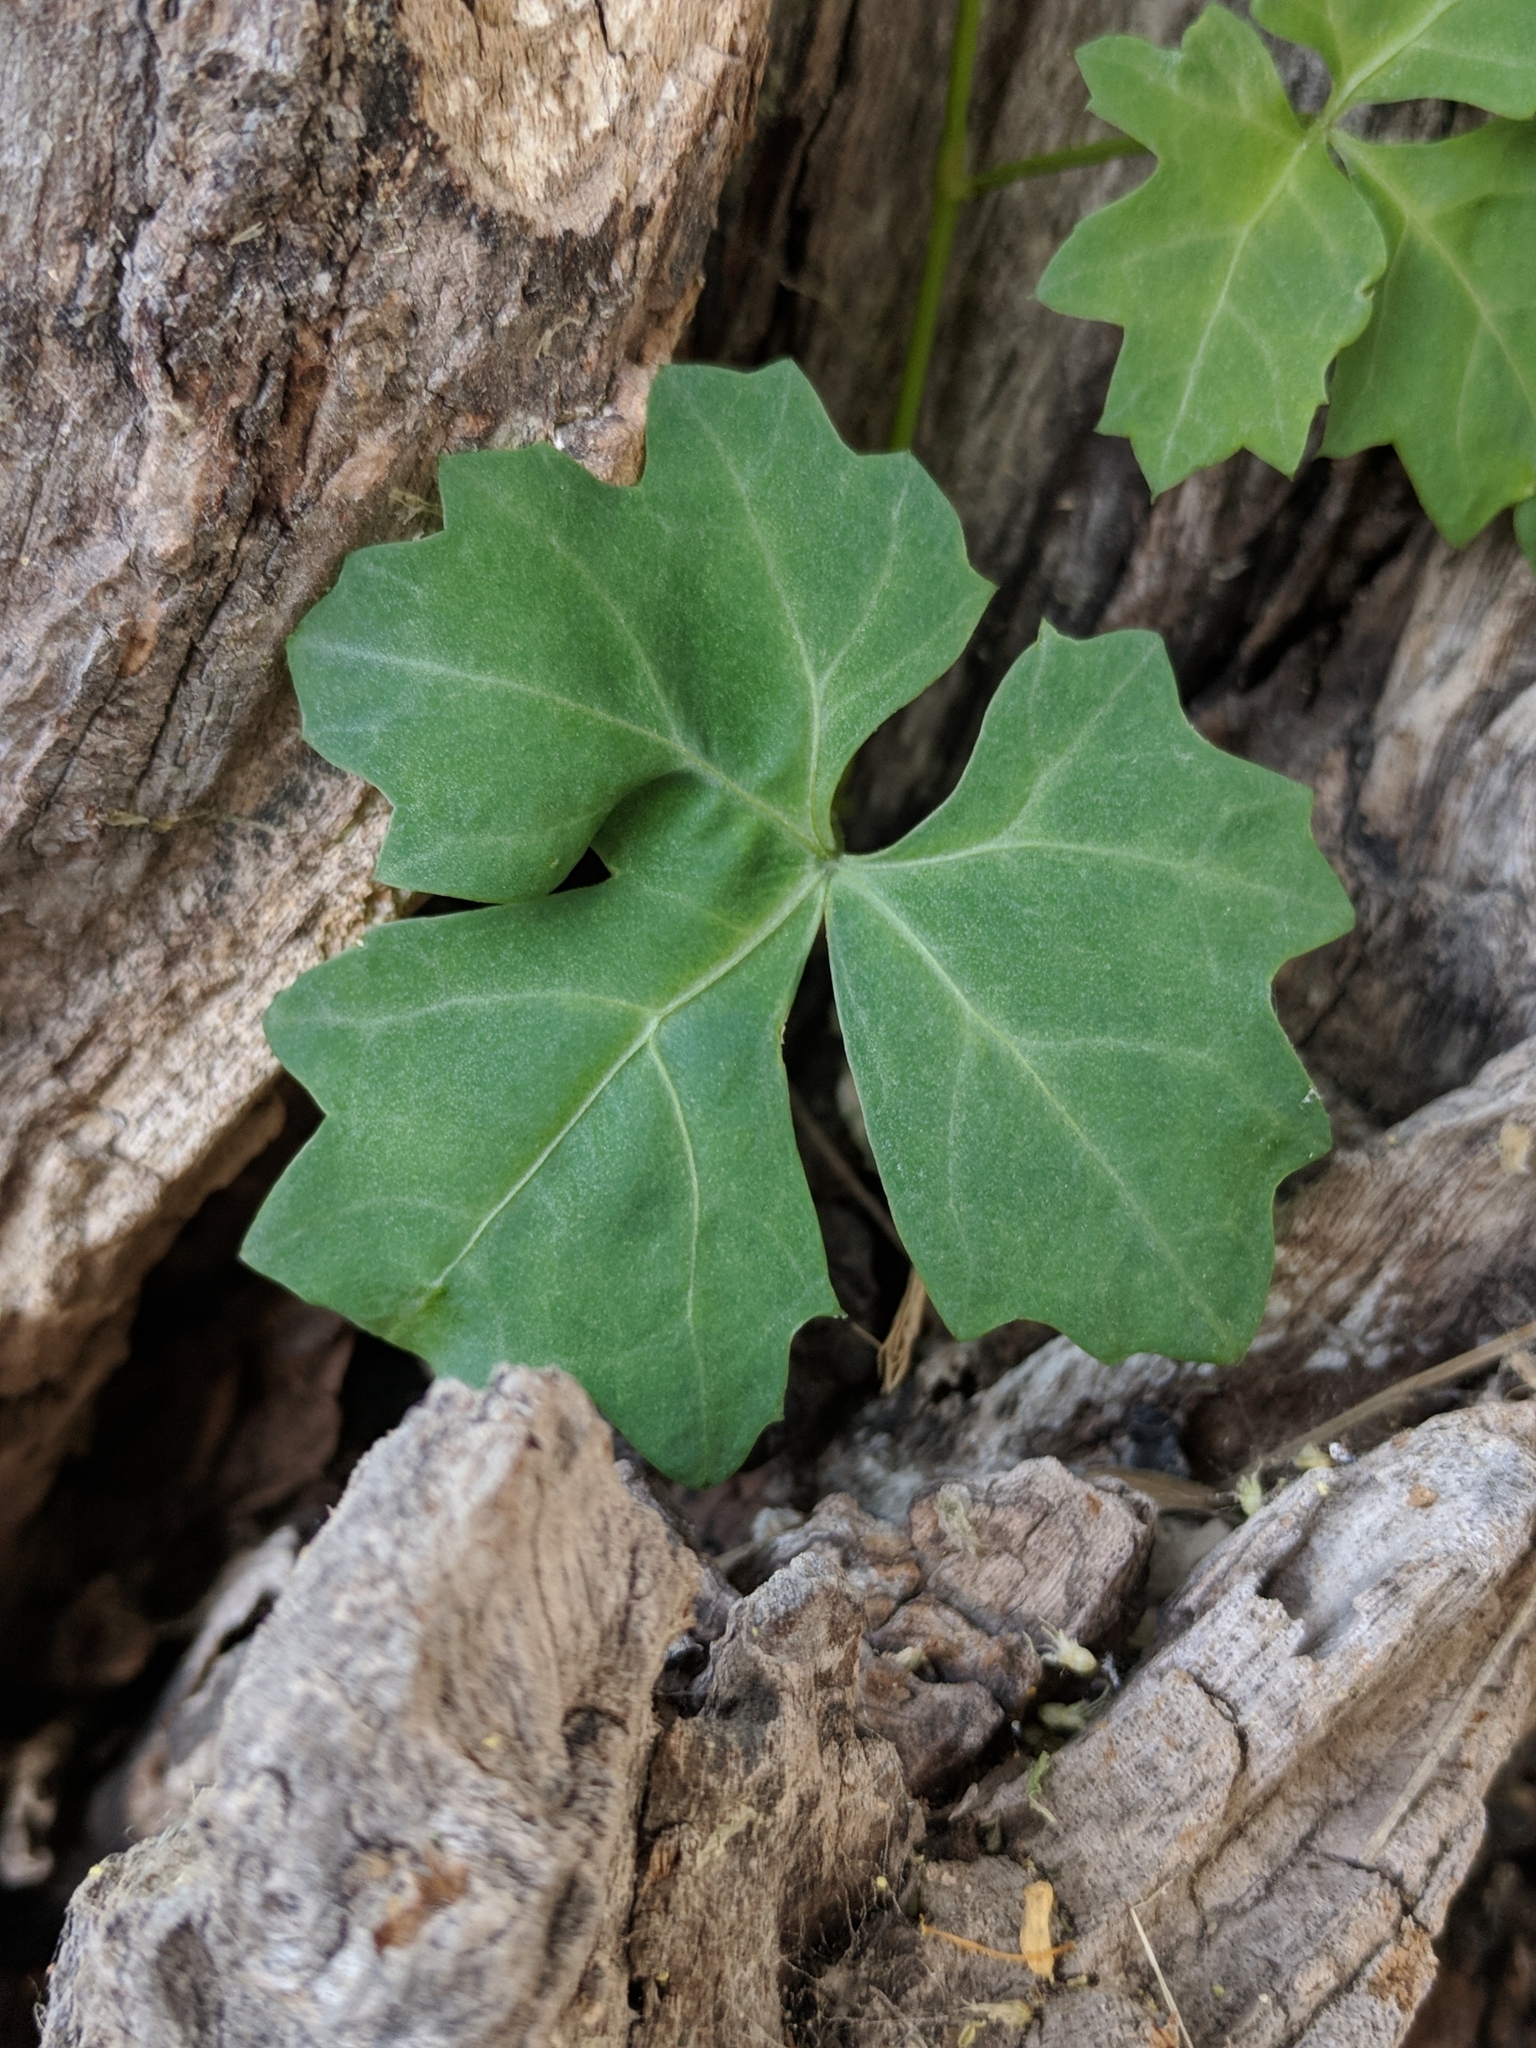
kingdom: Plantae
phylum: Tracheophyta
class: Magnoliopsida
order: Vitales
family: Vitaceae
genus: Cissus
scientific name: Cissus trifoliata
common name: Vine-sorrel
